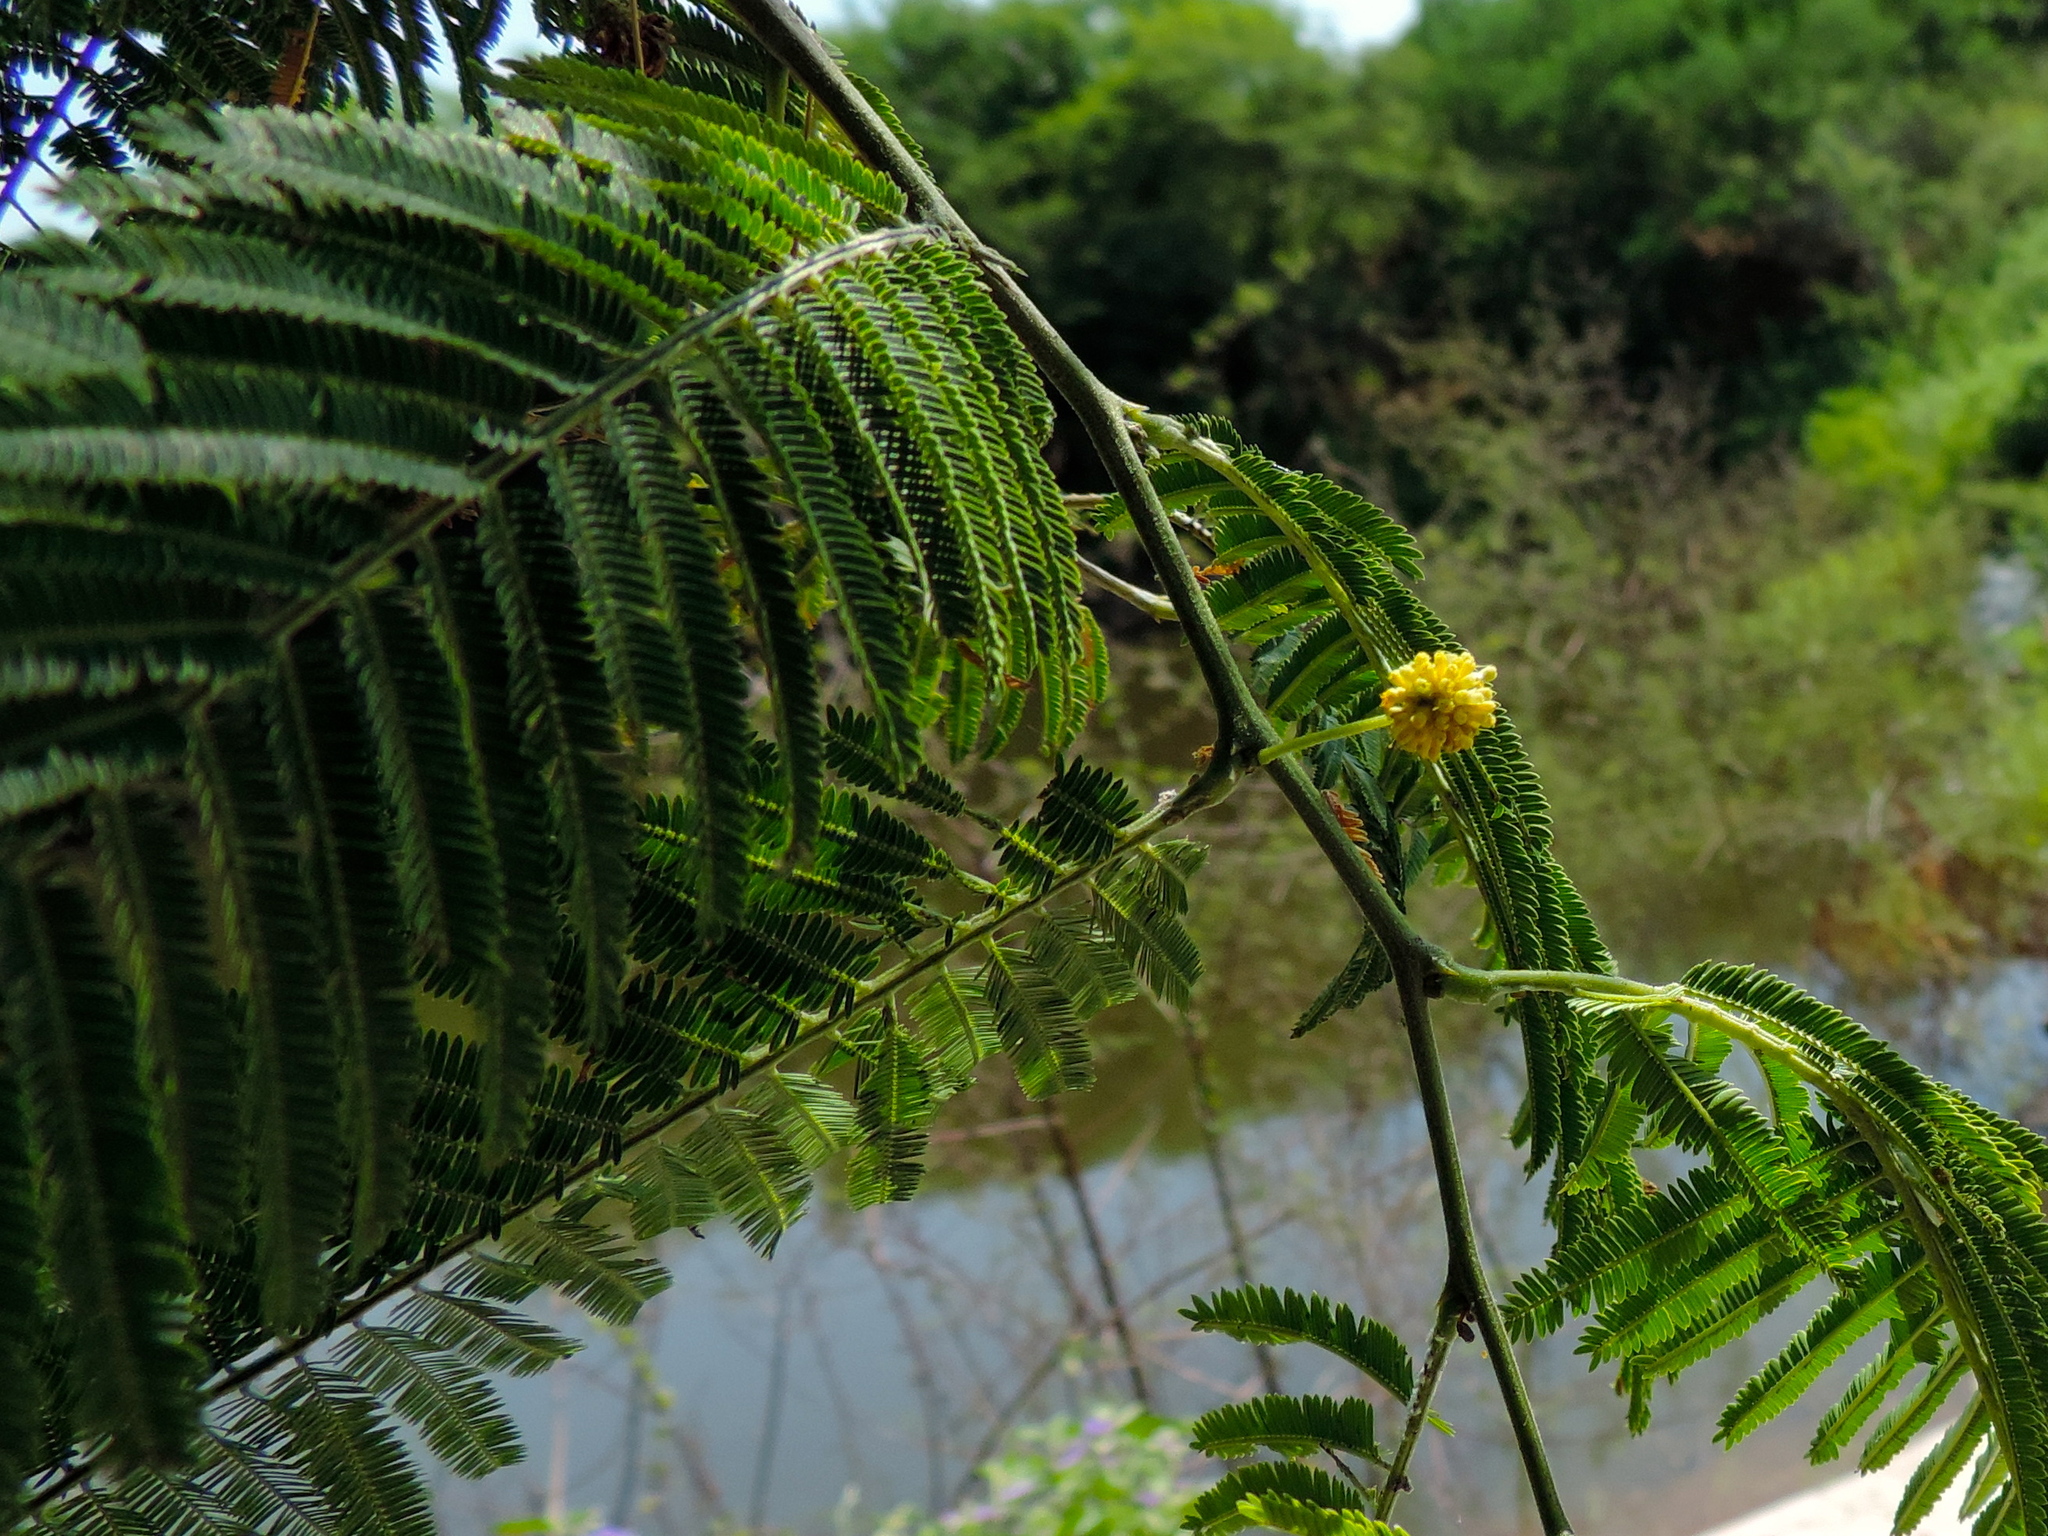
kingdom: Plantae
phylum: Tracheophyta
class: Magnoliopsida
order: Fabales
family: Fabaceae
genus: Vachellia
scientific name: Vachellia farnesiana
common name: Sweet acacia
